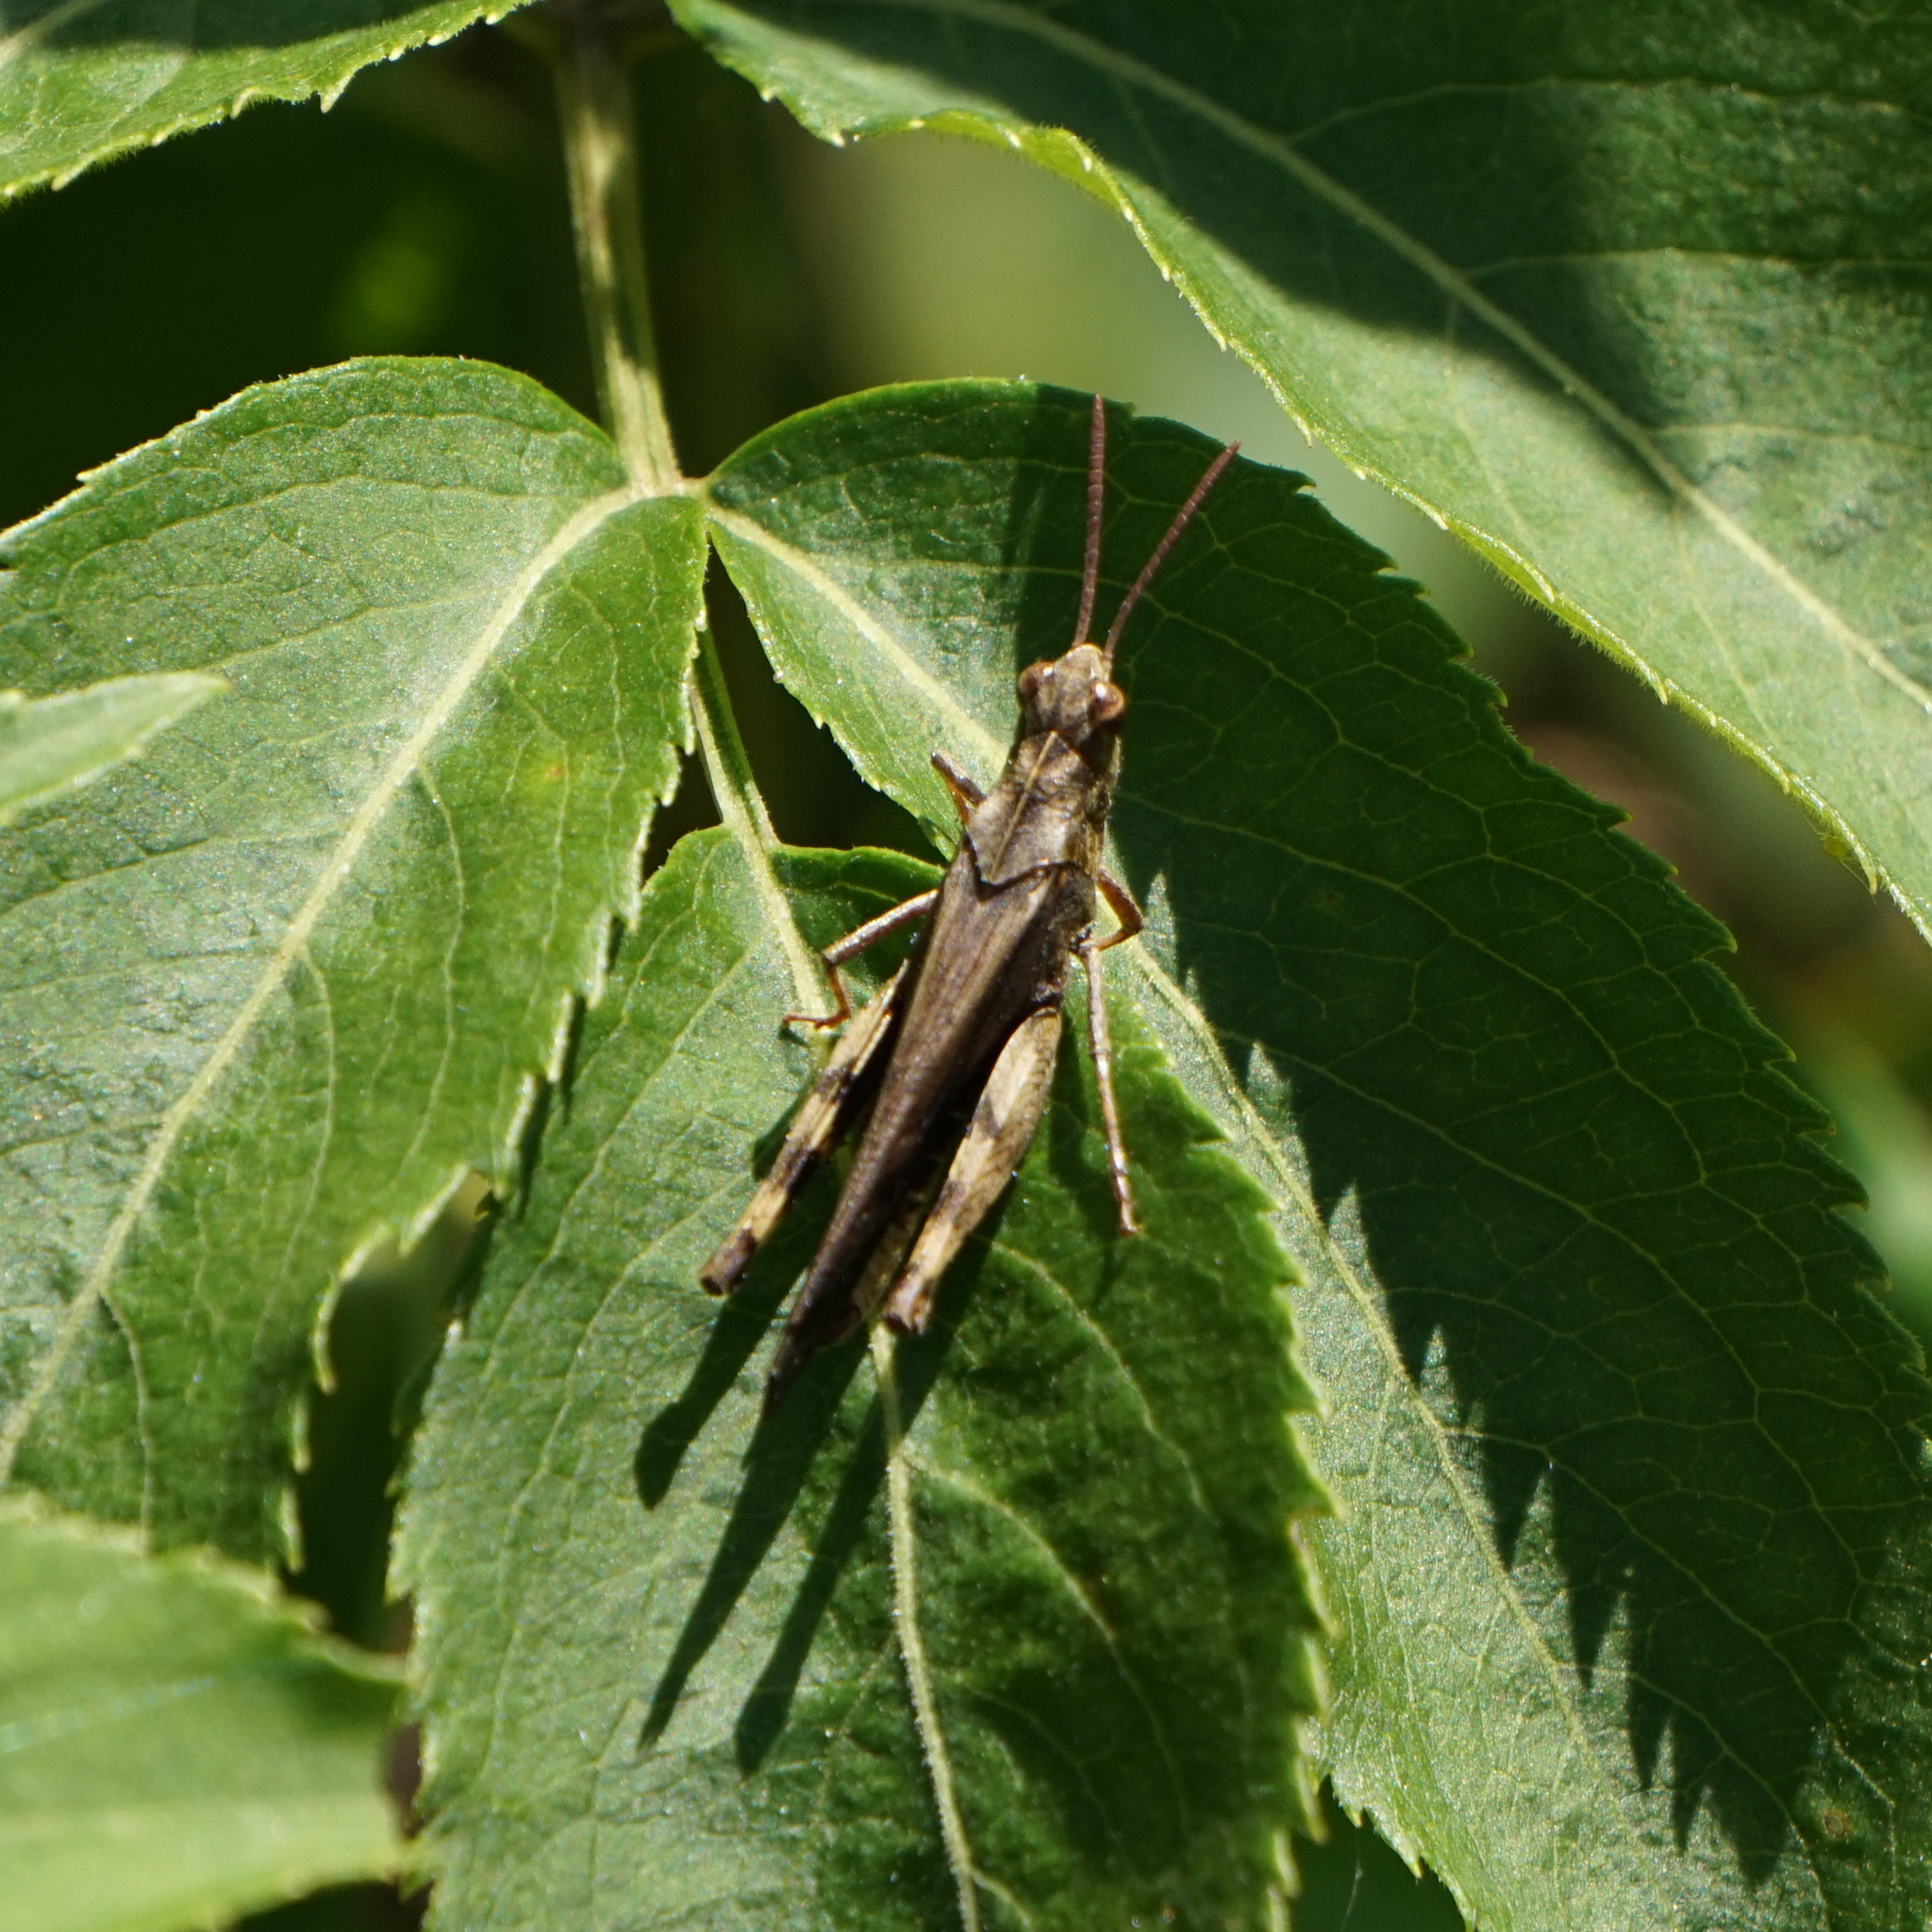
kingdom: Animalia
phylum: Arthropoda
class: Insecta
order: Orthoptera
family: Acrididae
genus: Chortophaga
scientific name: Chortophaga viridifasciata
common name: Green-striped grasshopper
